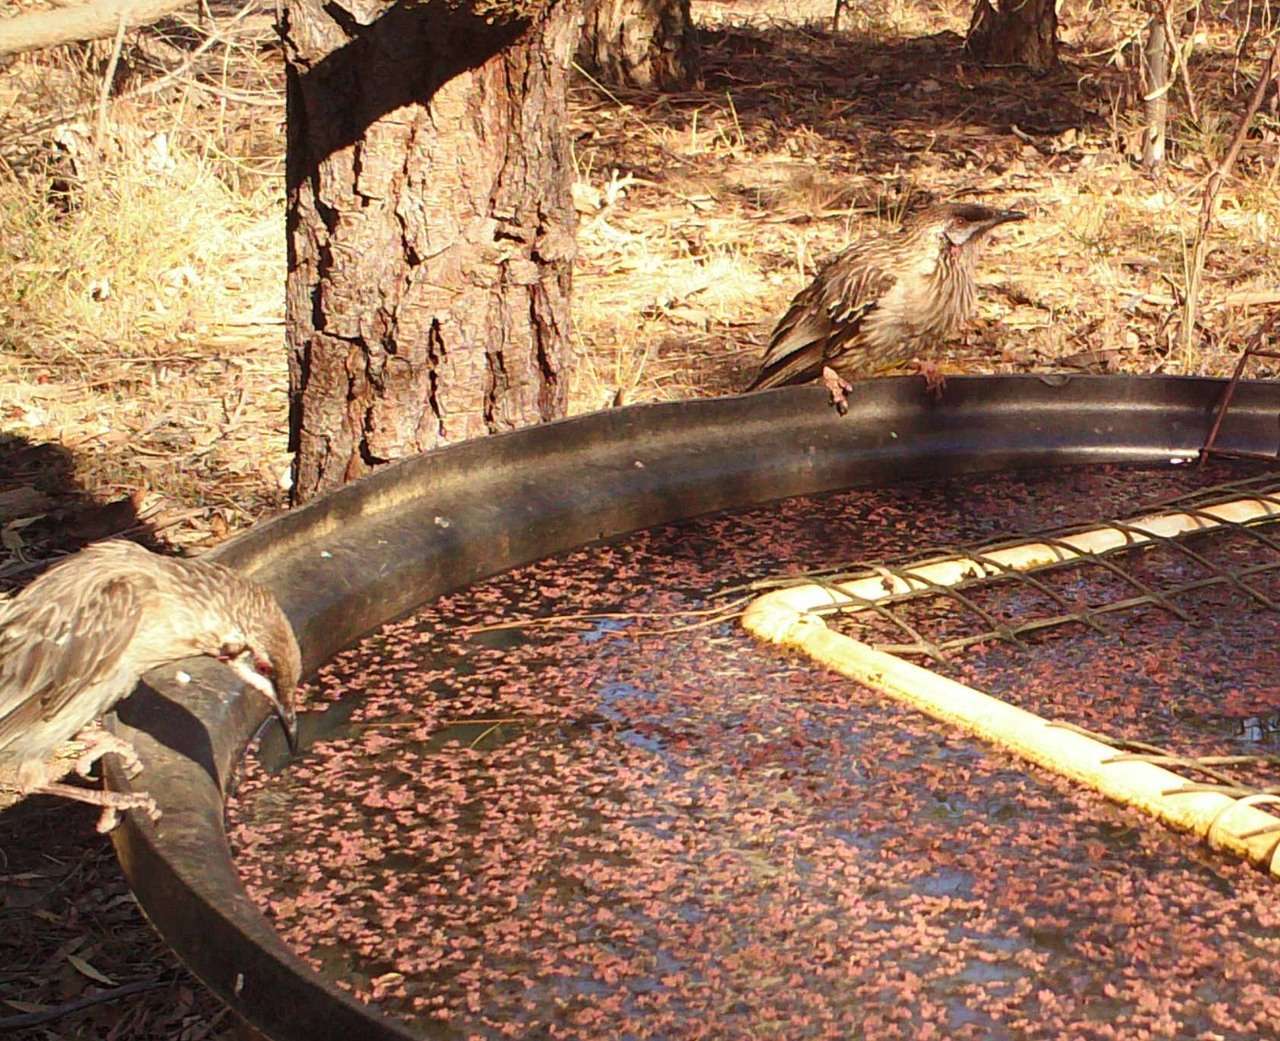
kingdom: Animalia
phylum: Chordata
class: Aves
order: Passeriformes
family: Meliphagidae
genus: Anthochaera
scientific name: Anthochaera carunculata
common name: Red wattlebird
